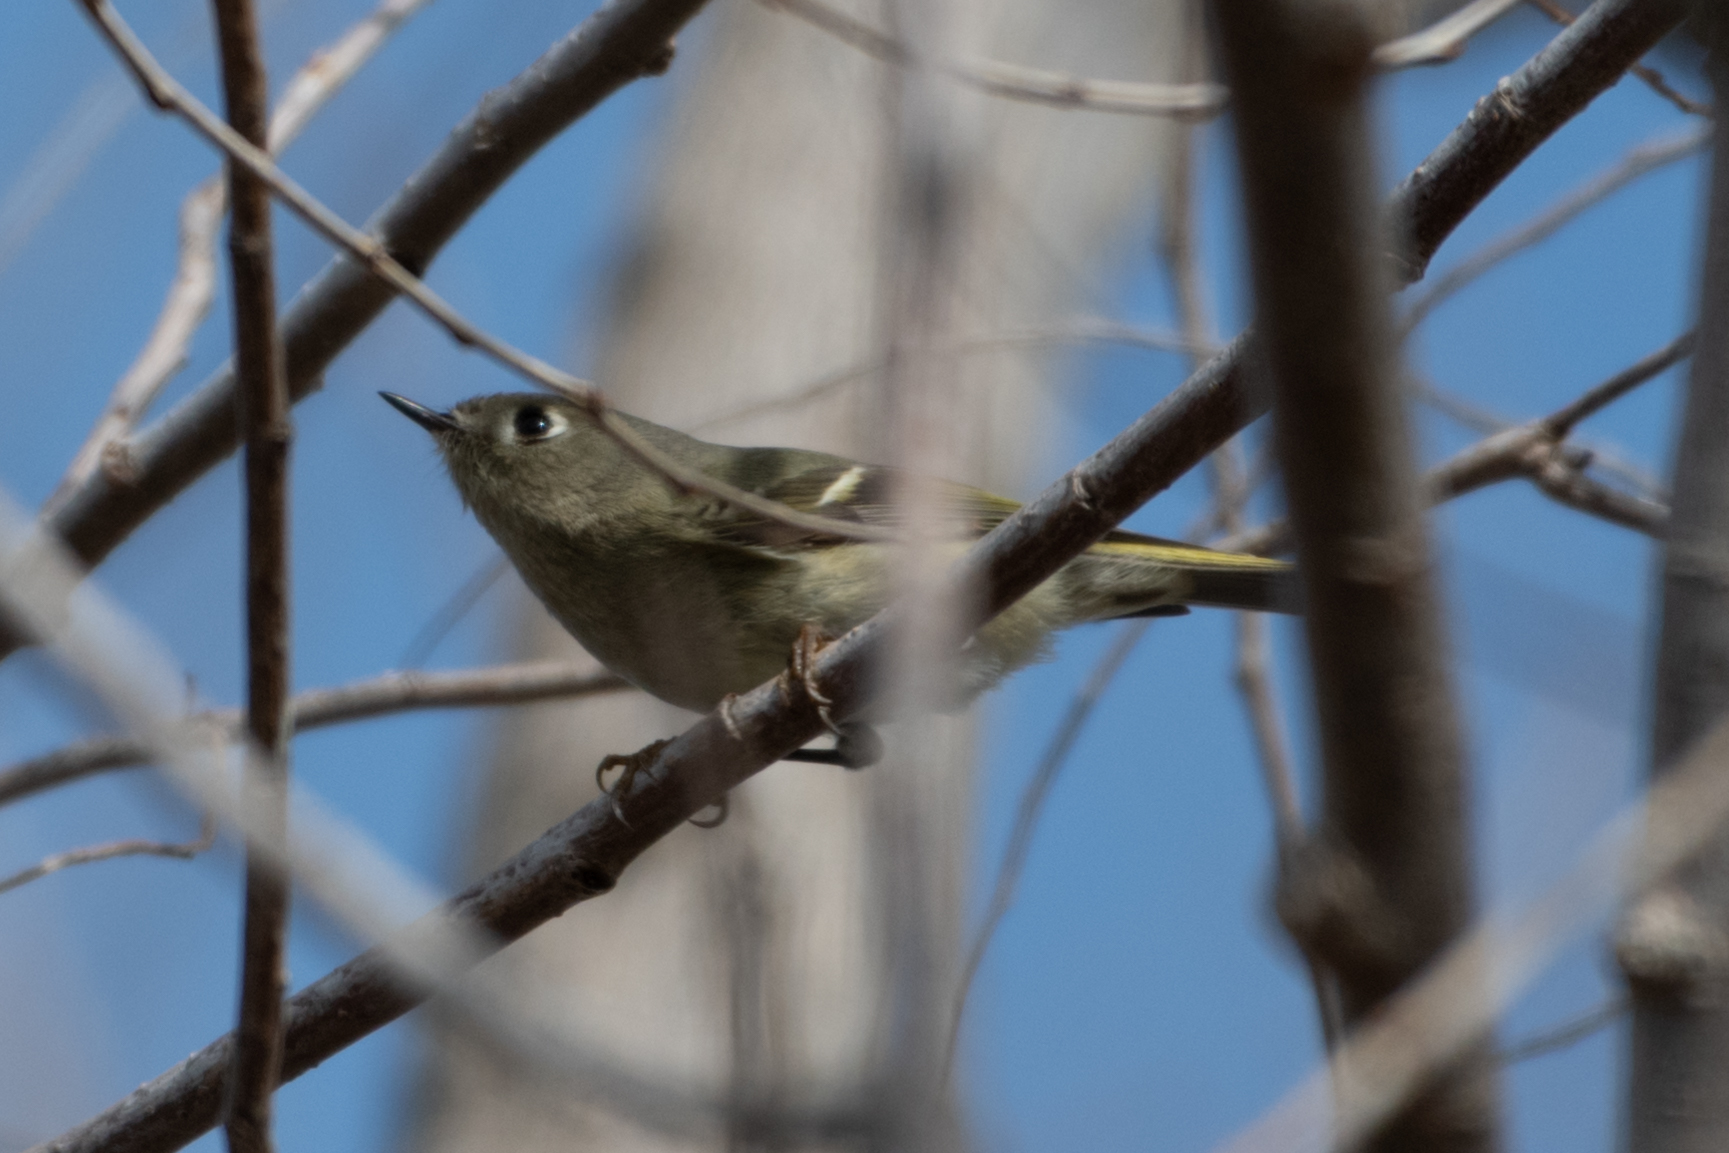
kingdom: Animalia
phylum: Chordata
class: Aves
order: Passeriformes
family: Regulidae
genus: Regulus
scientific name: Regulus calendula
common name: Ruby-crowned kinglet
